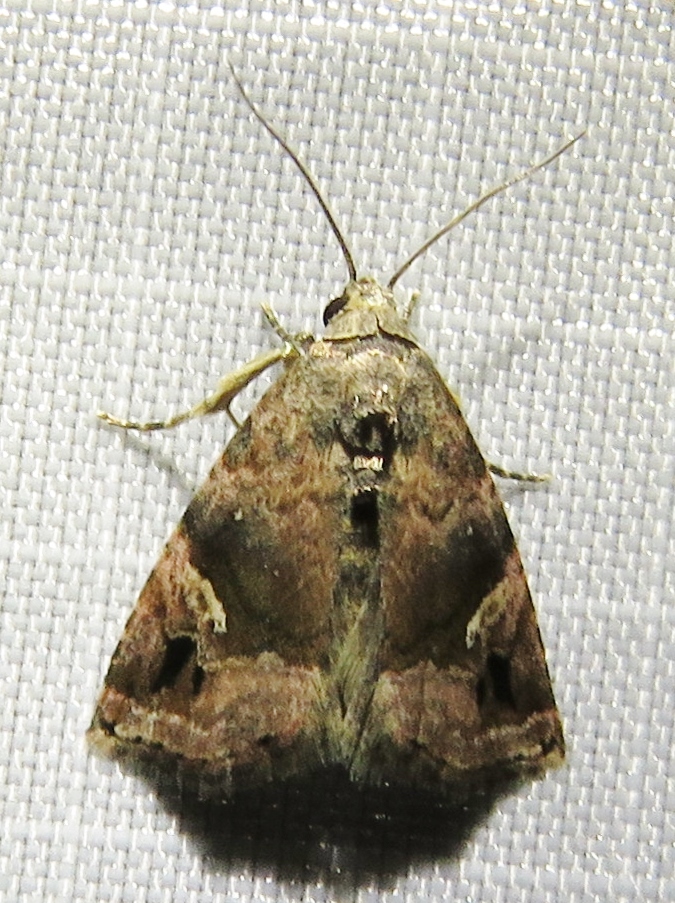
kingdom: Animalia
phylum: Arthropoda
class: Insecta
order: Lepidoptera
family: Noctuidae
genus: Ozarba
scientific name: Ozarba nebula
